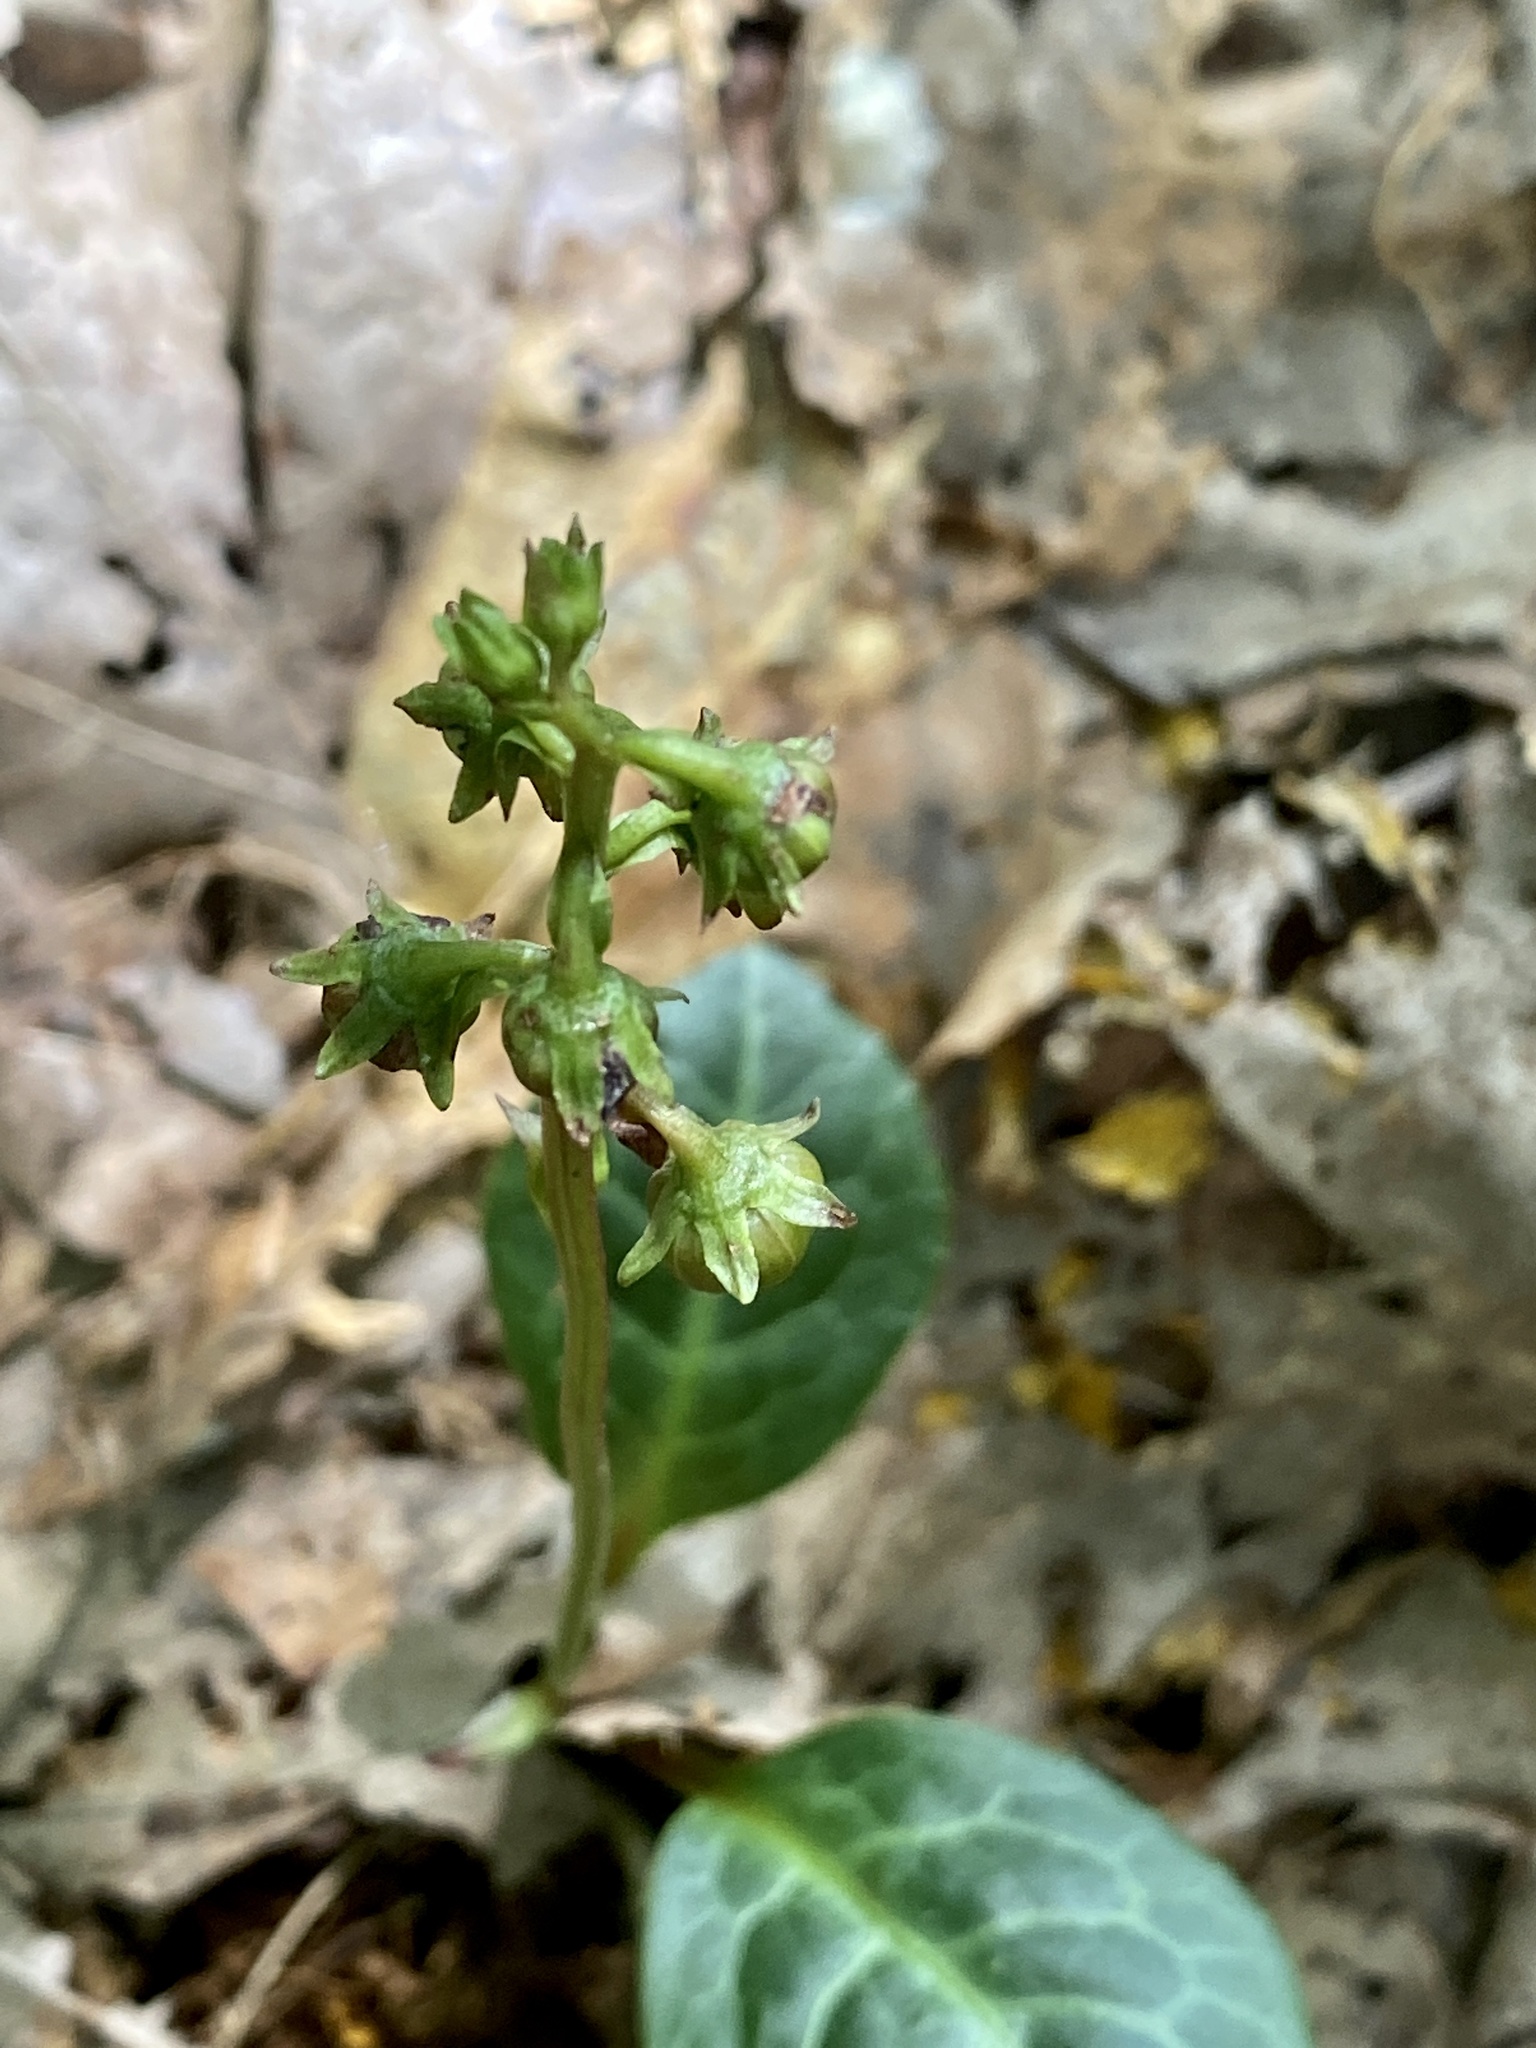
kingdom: Plantae
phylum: Tracheophyta
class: Magnoliopsida
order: Ericales
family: Ericaceae
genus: Pyrola
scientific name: Pyrola americana
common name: American wintergreen
